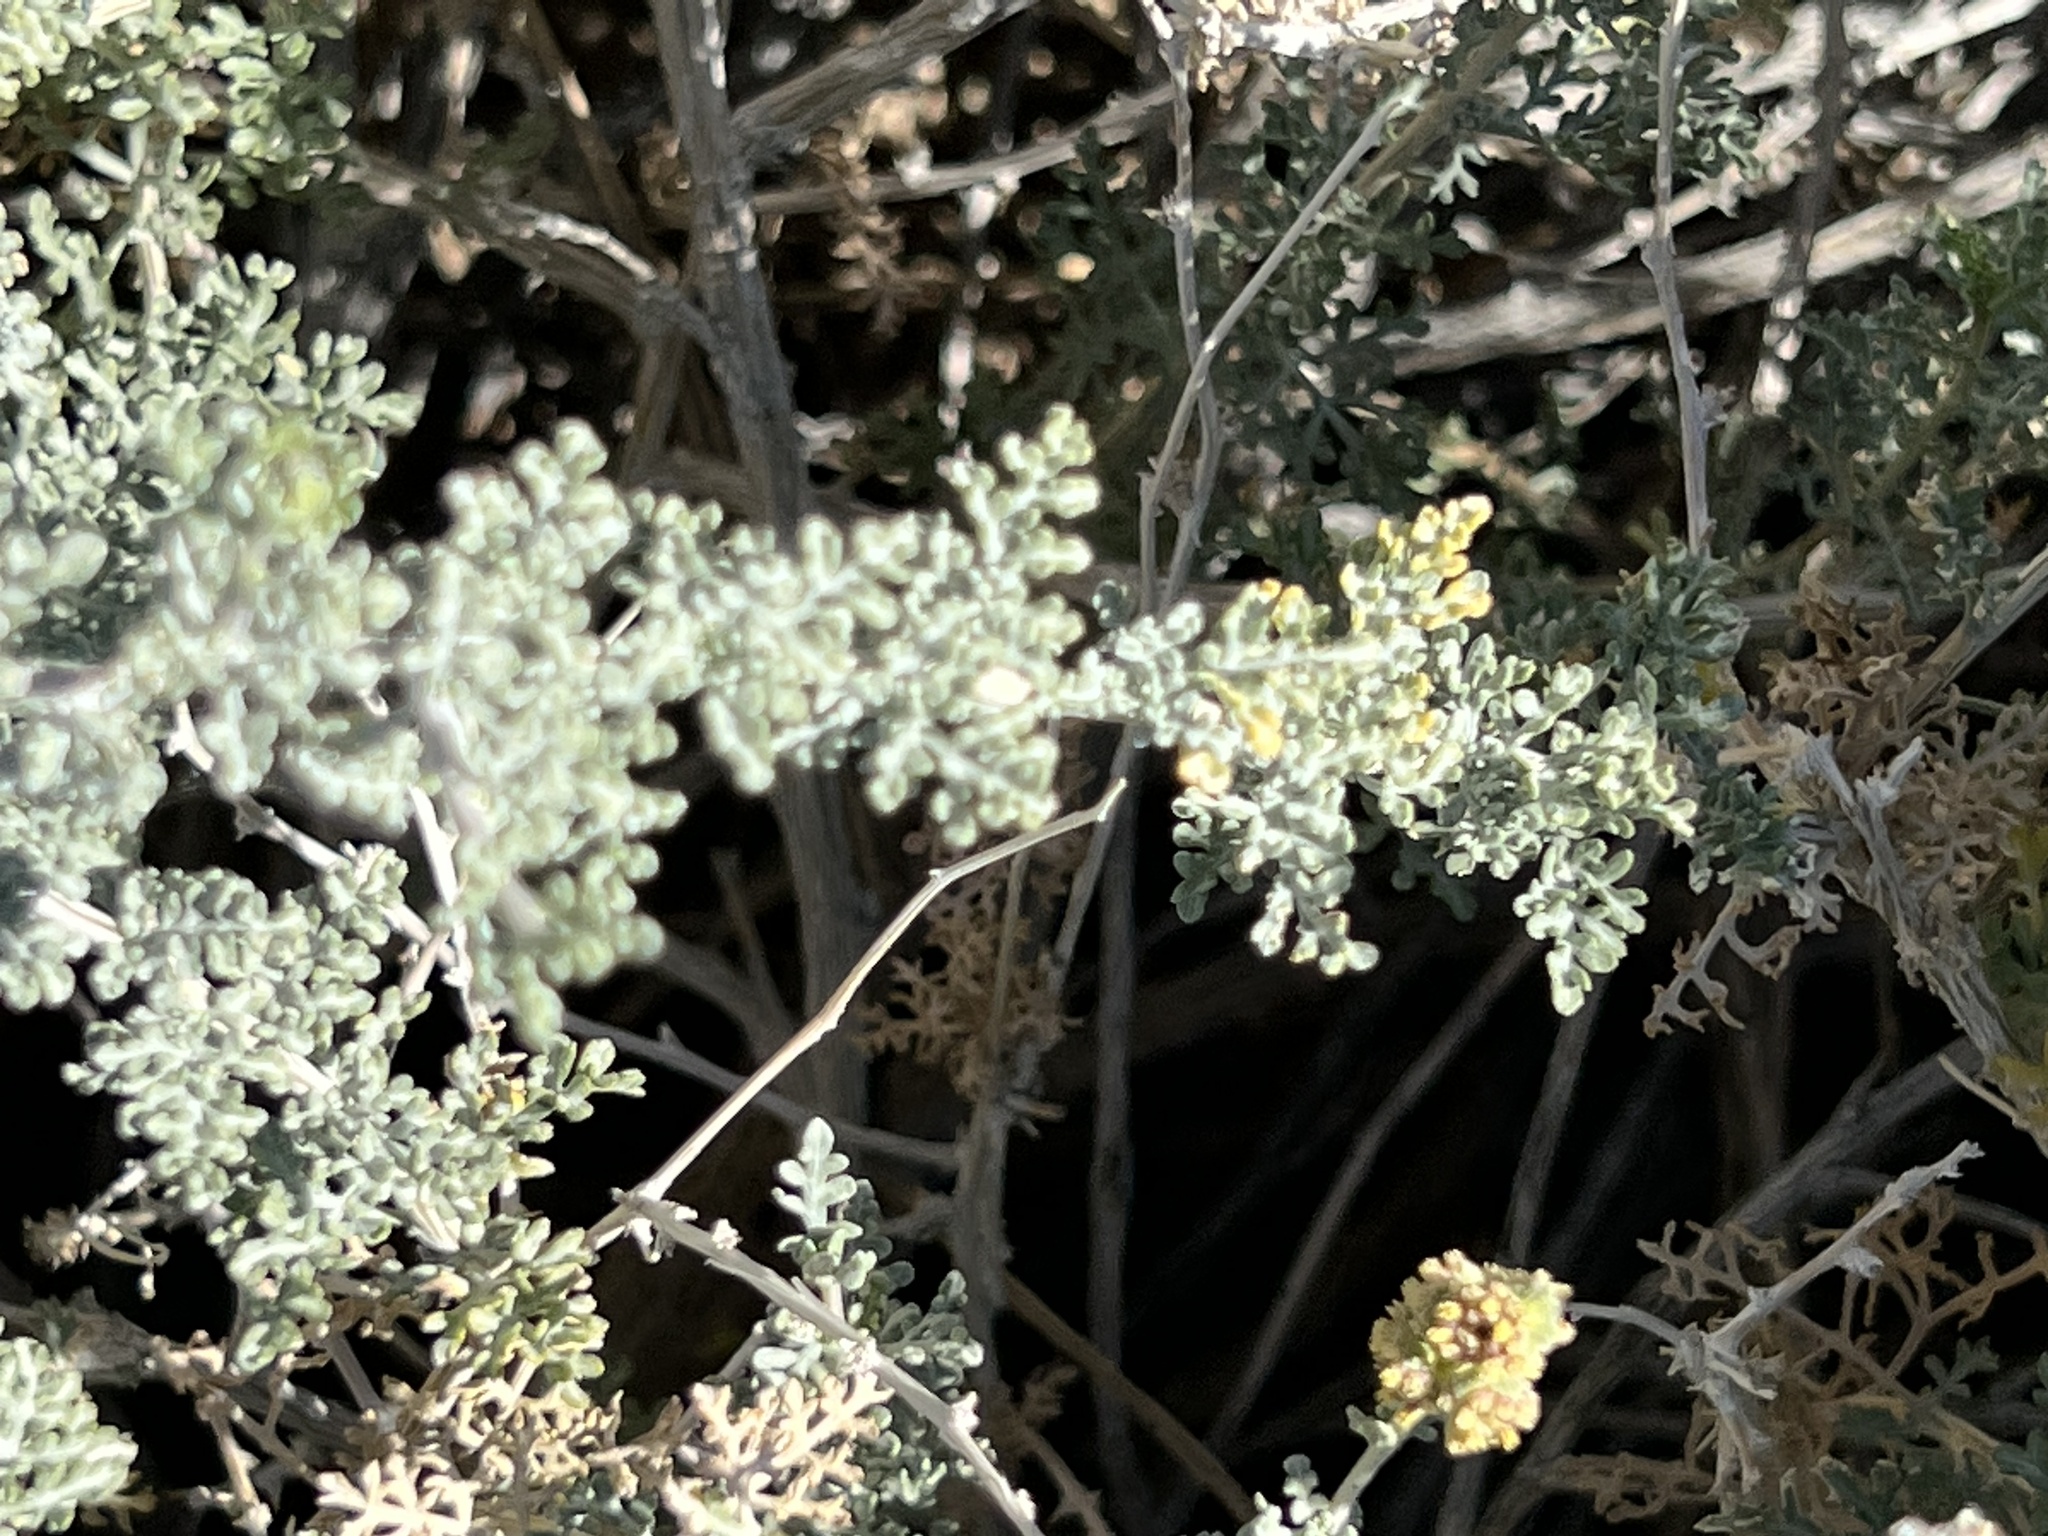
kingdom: Plantae
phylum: Tracheophyta
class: Magnoliopsida
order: Asterales
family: Asteraceae
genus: Ambrosia
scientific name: Ambrosia dumosa
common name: Bur-sage
